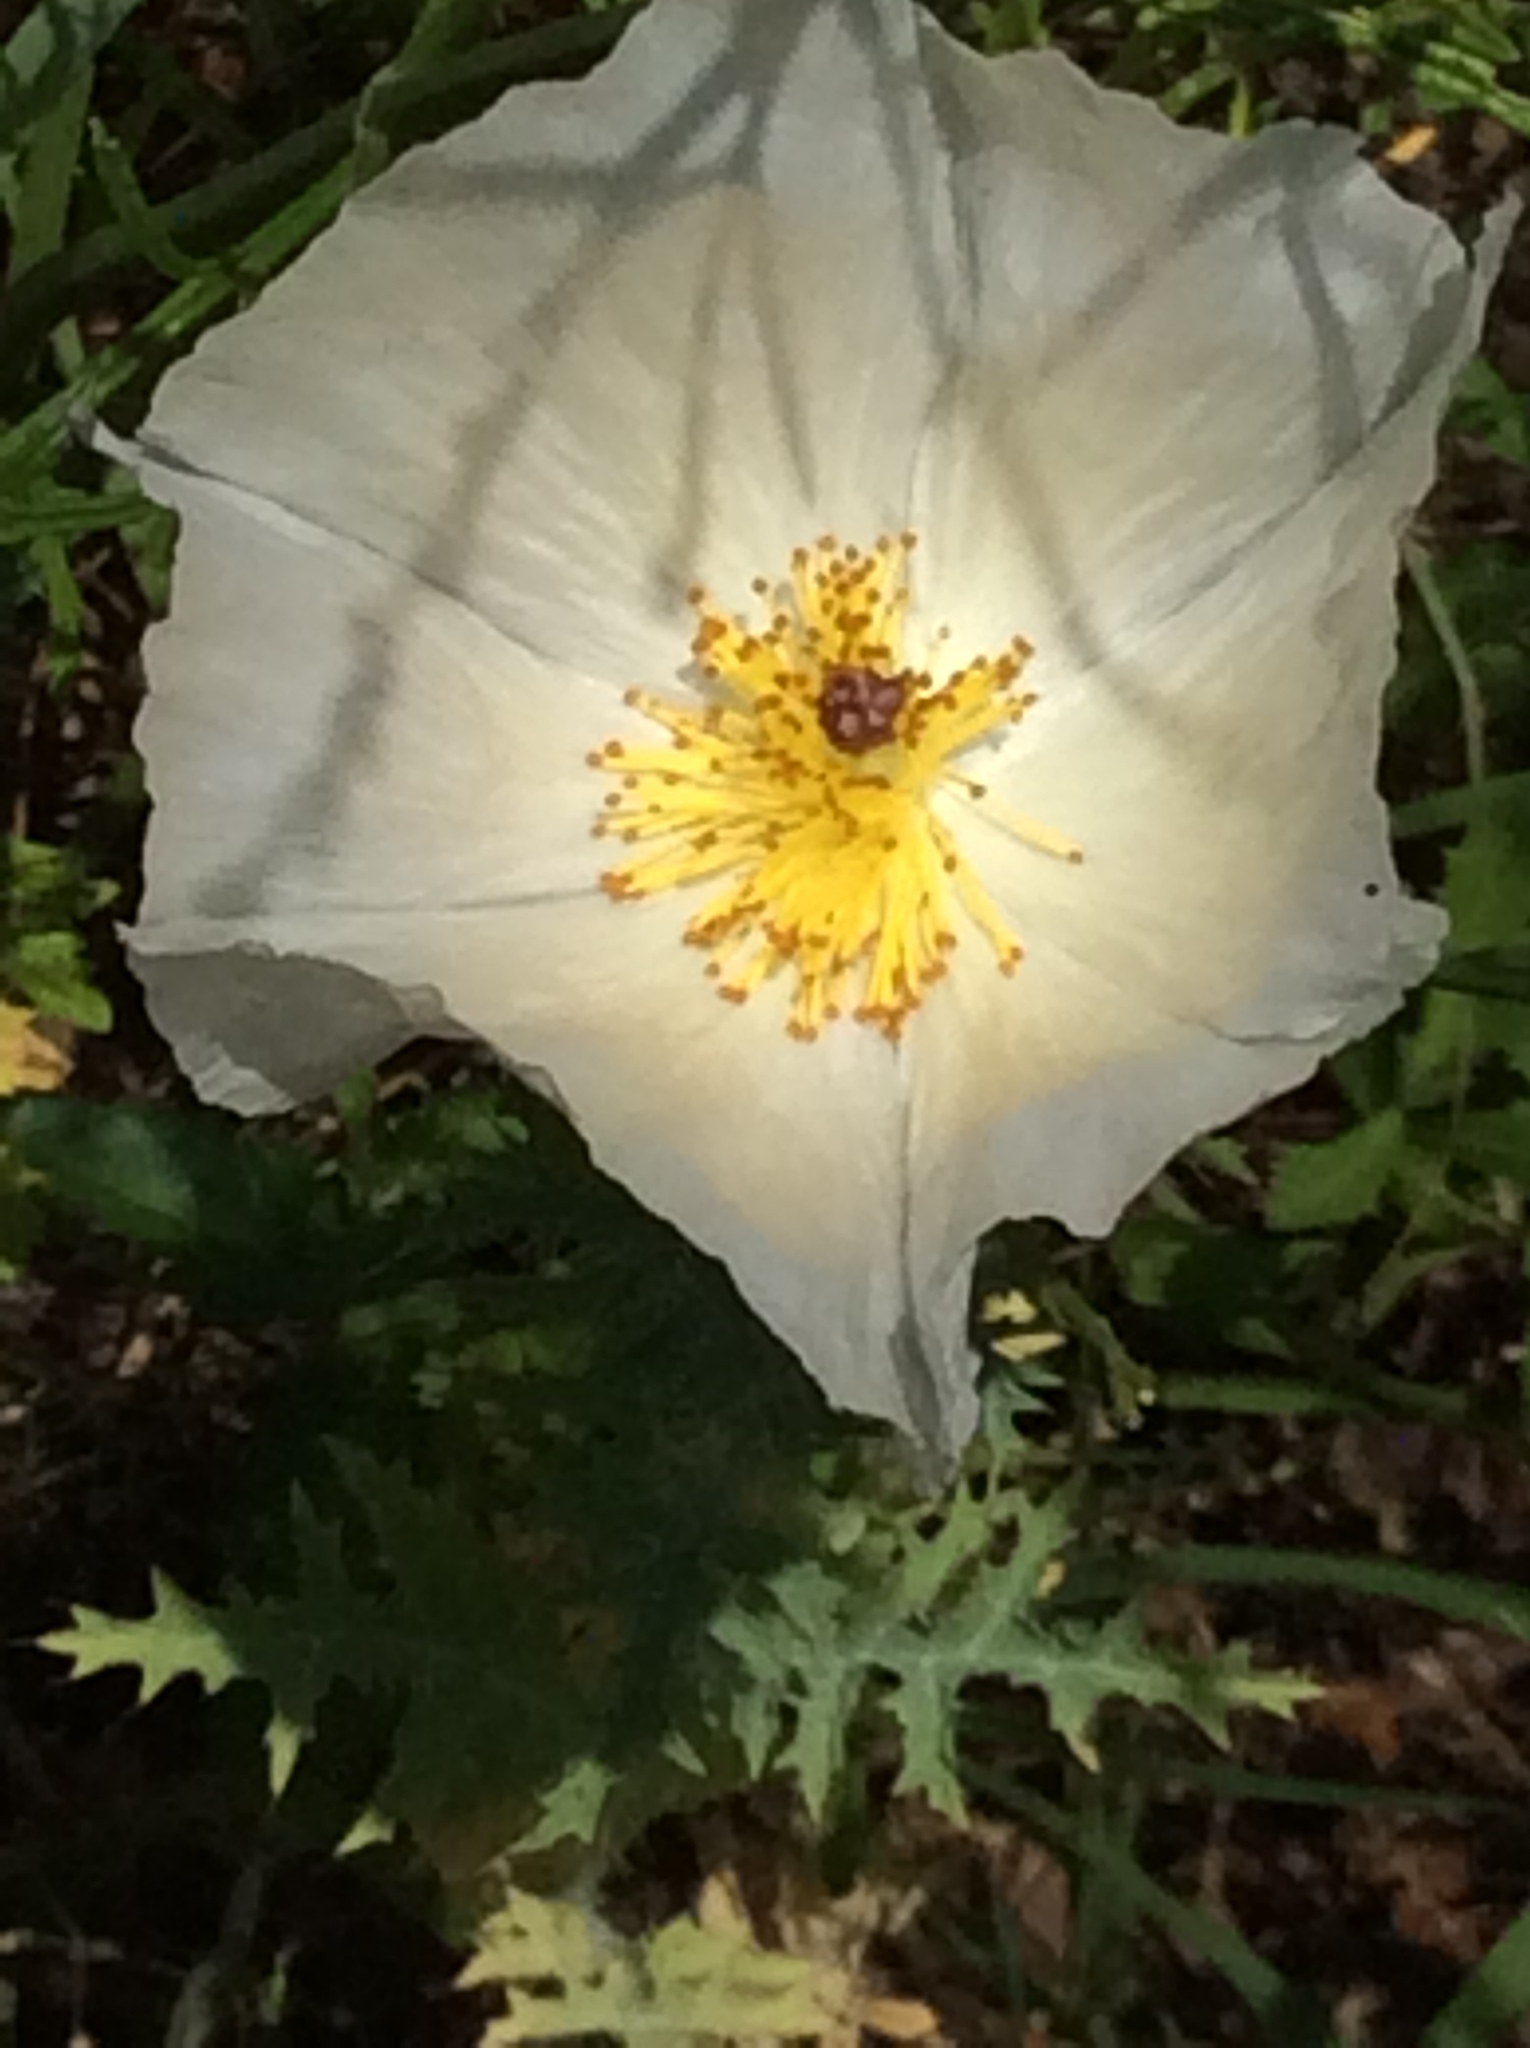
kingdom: Plantae
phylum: Tracheophyta
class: Magnoliopsida
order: Ranunculales
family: Papaveraceae
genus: Argemone
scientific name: Argemone albiflora
